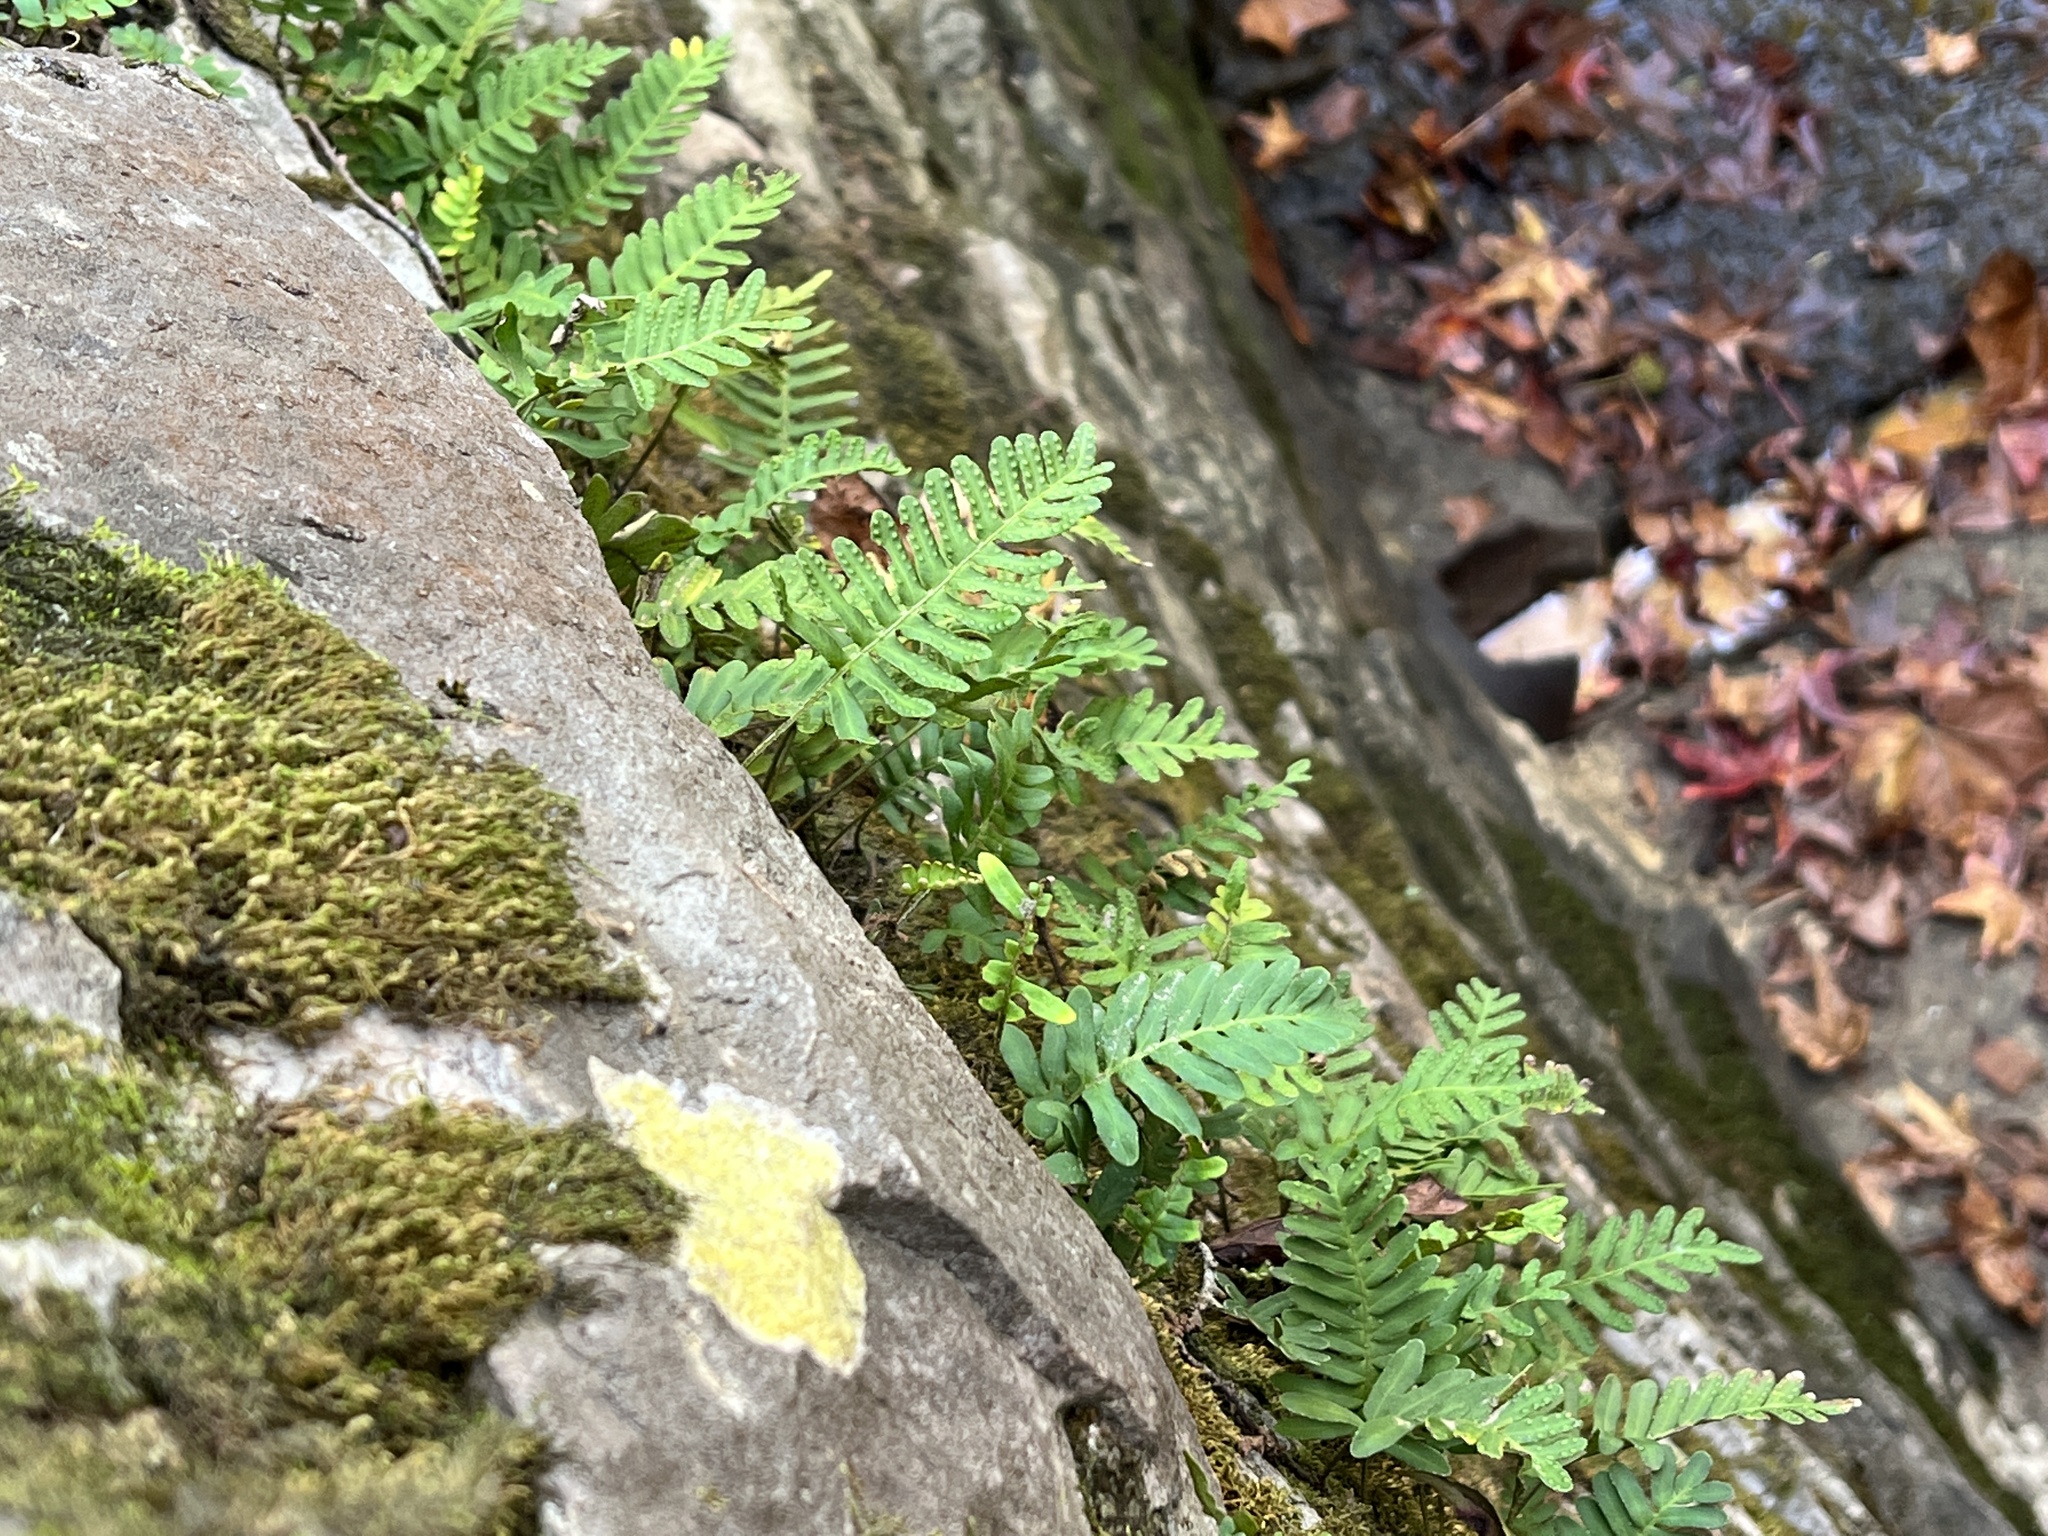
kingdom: Plantae
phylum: Tracheophyta
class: Polypodiopsida
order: Polypodiales
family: Polypodiaceae
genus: Pleopeltis
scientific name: Pleopeltis michauxiana
